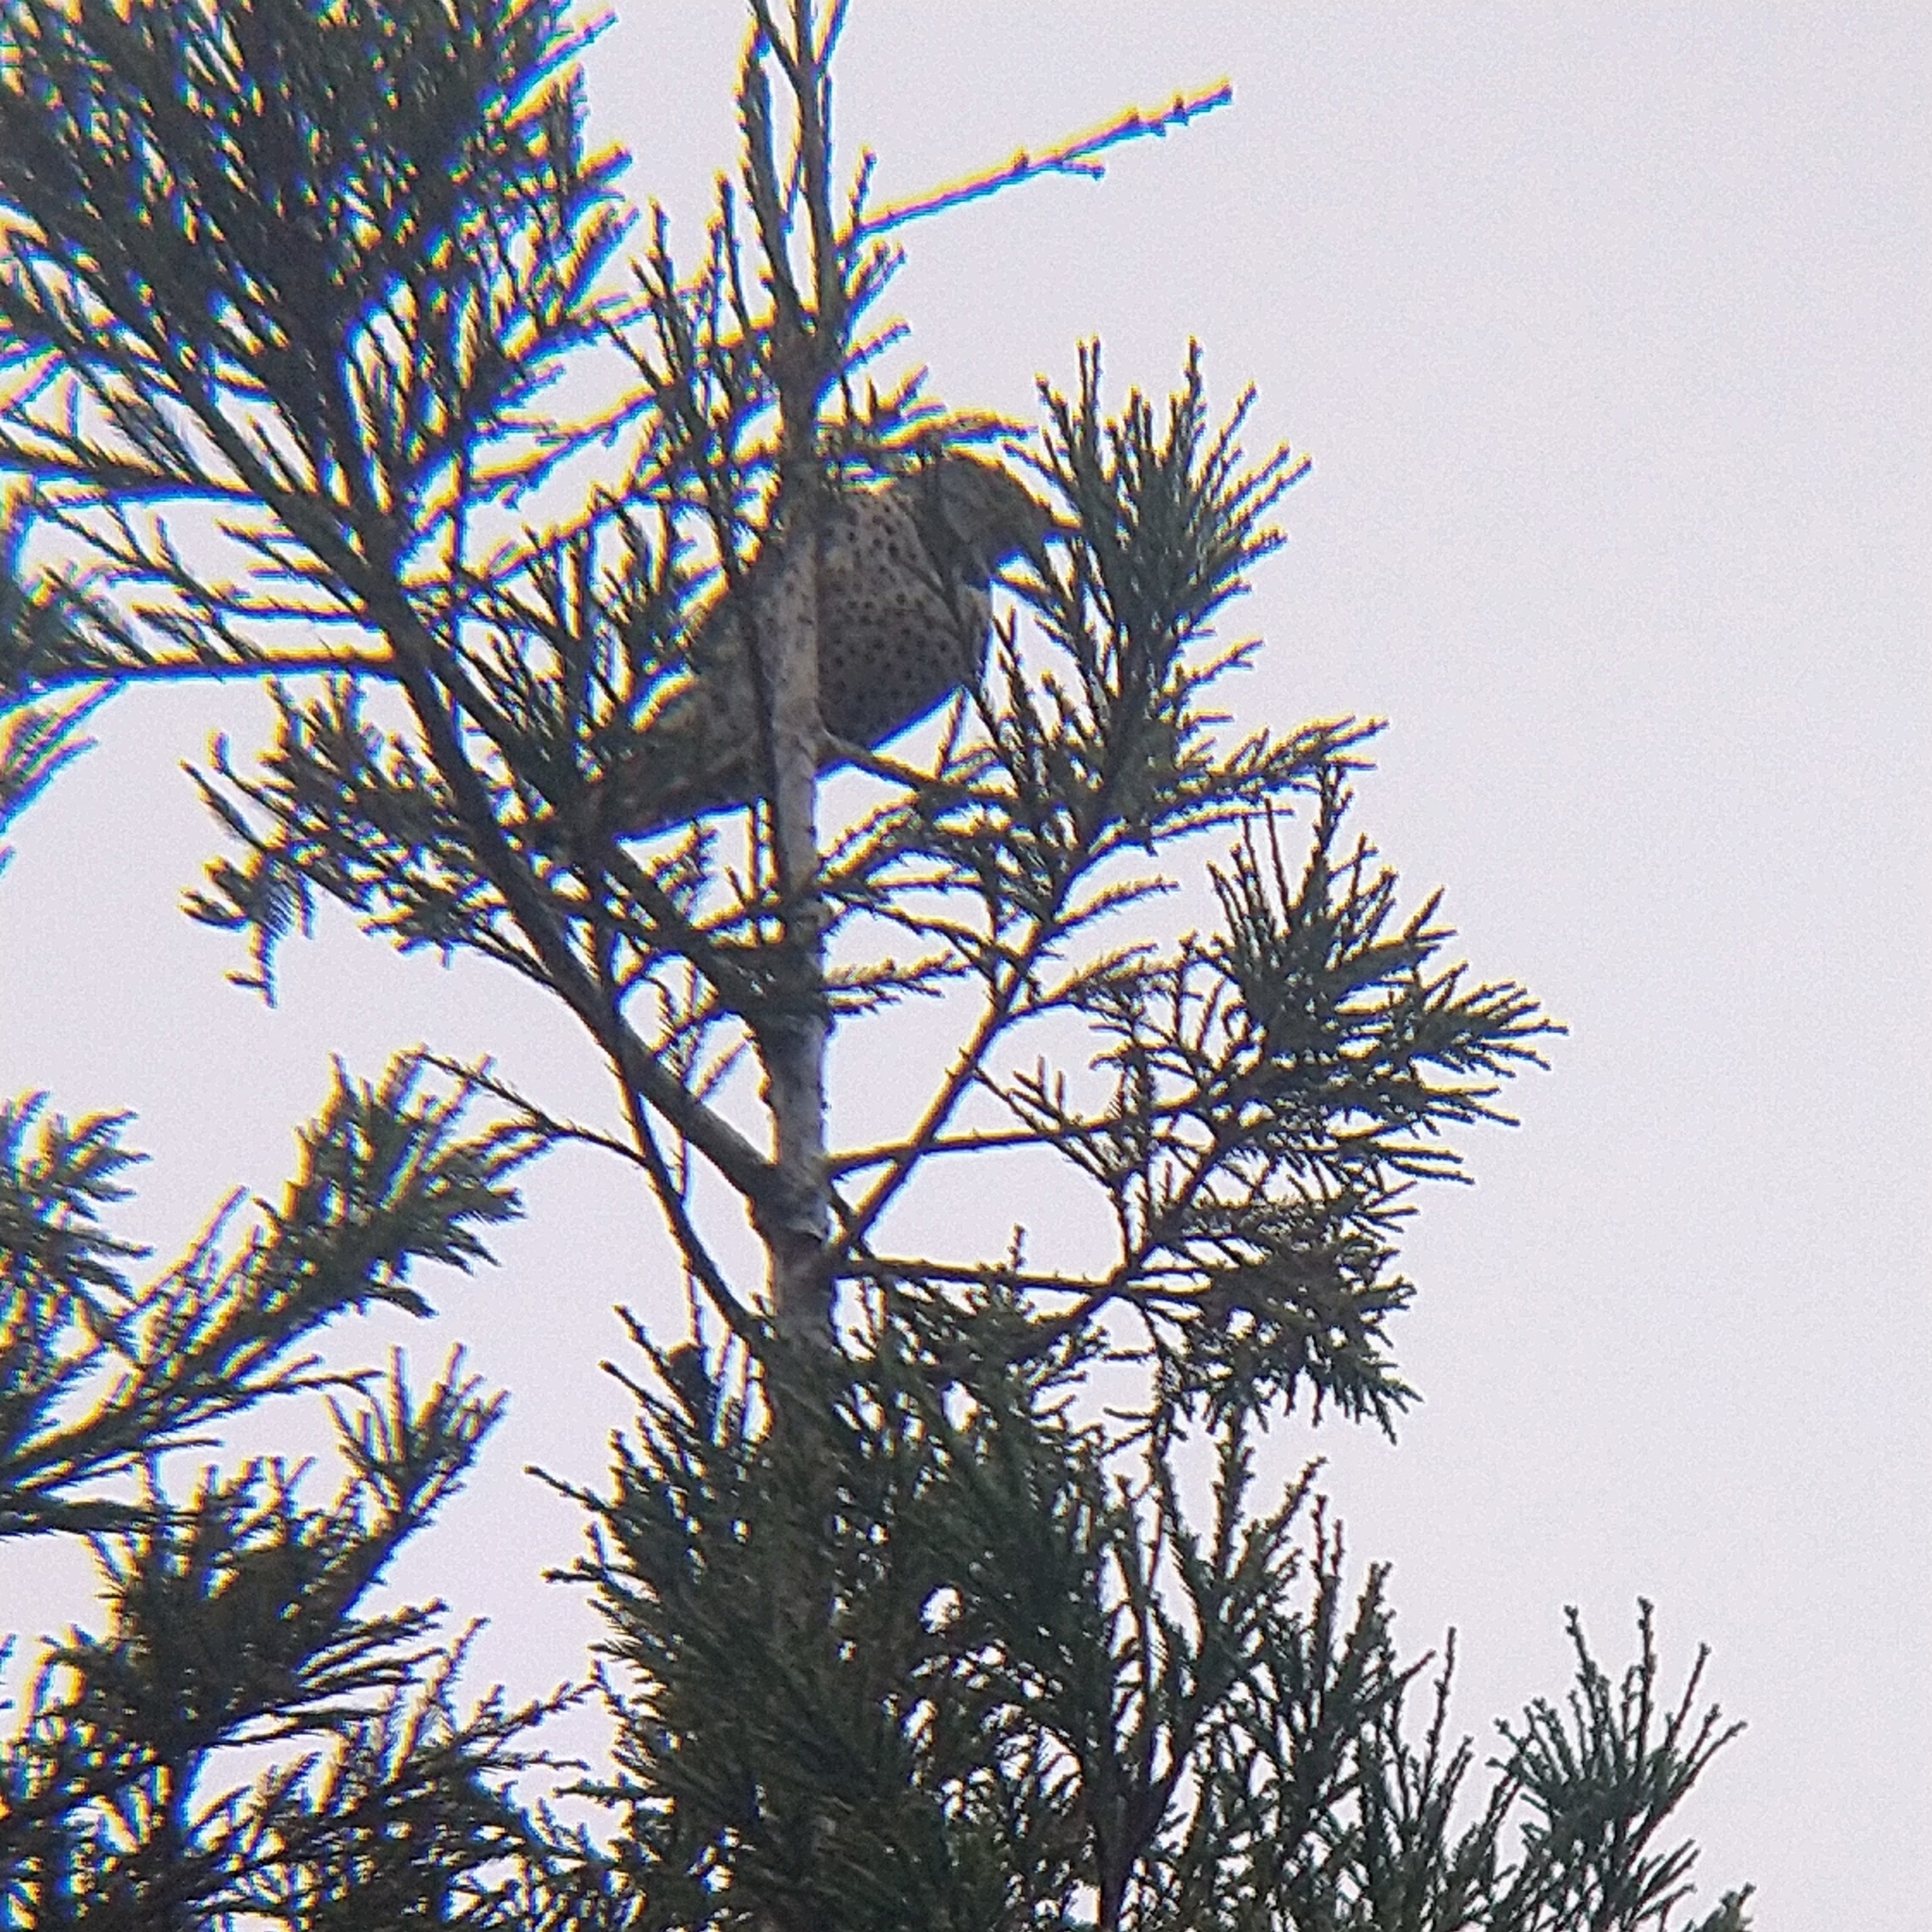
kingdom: Animalia
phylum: Chordata
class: Aves
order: Piciformes
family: Picidae
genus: Colaptes
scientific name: Colaptes auratus
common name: Northern flicker
